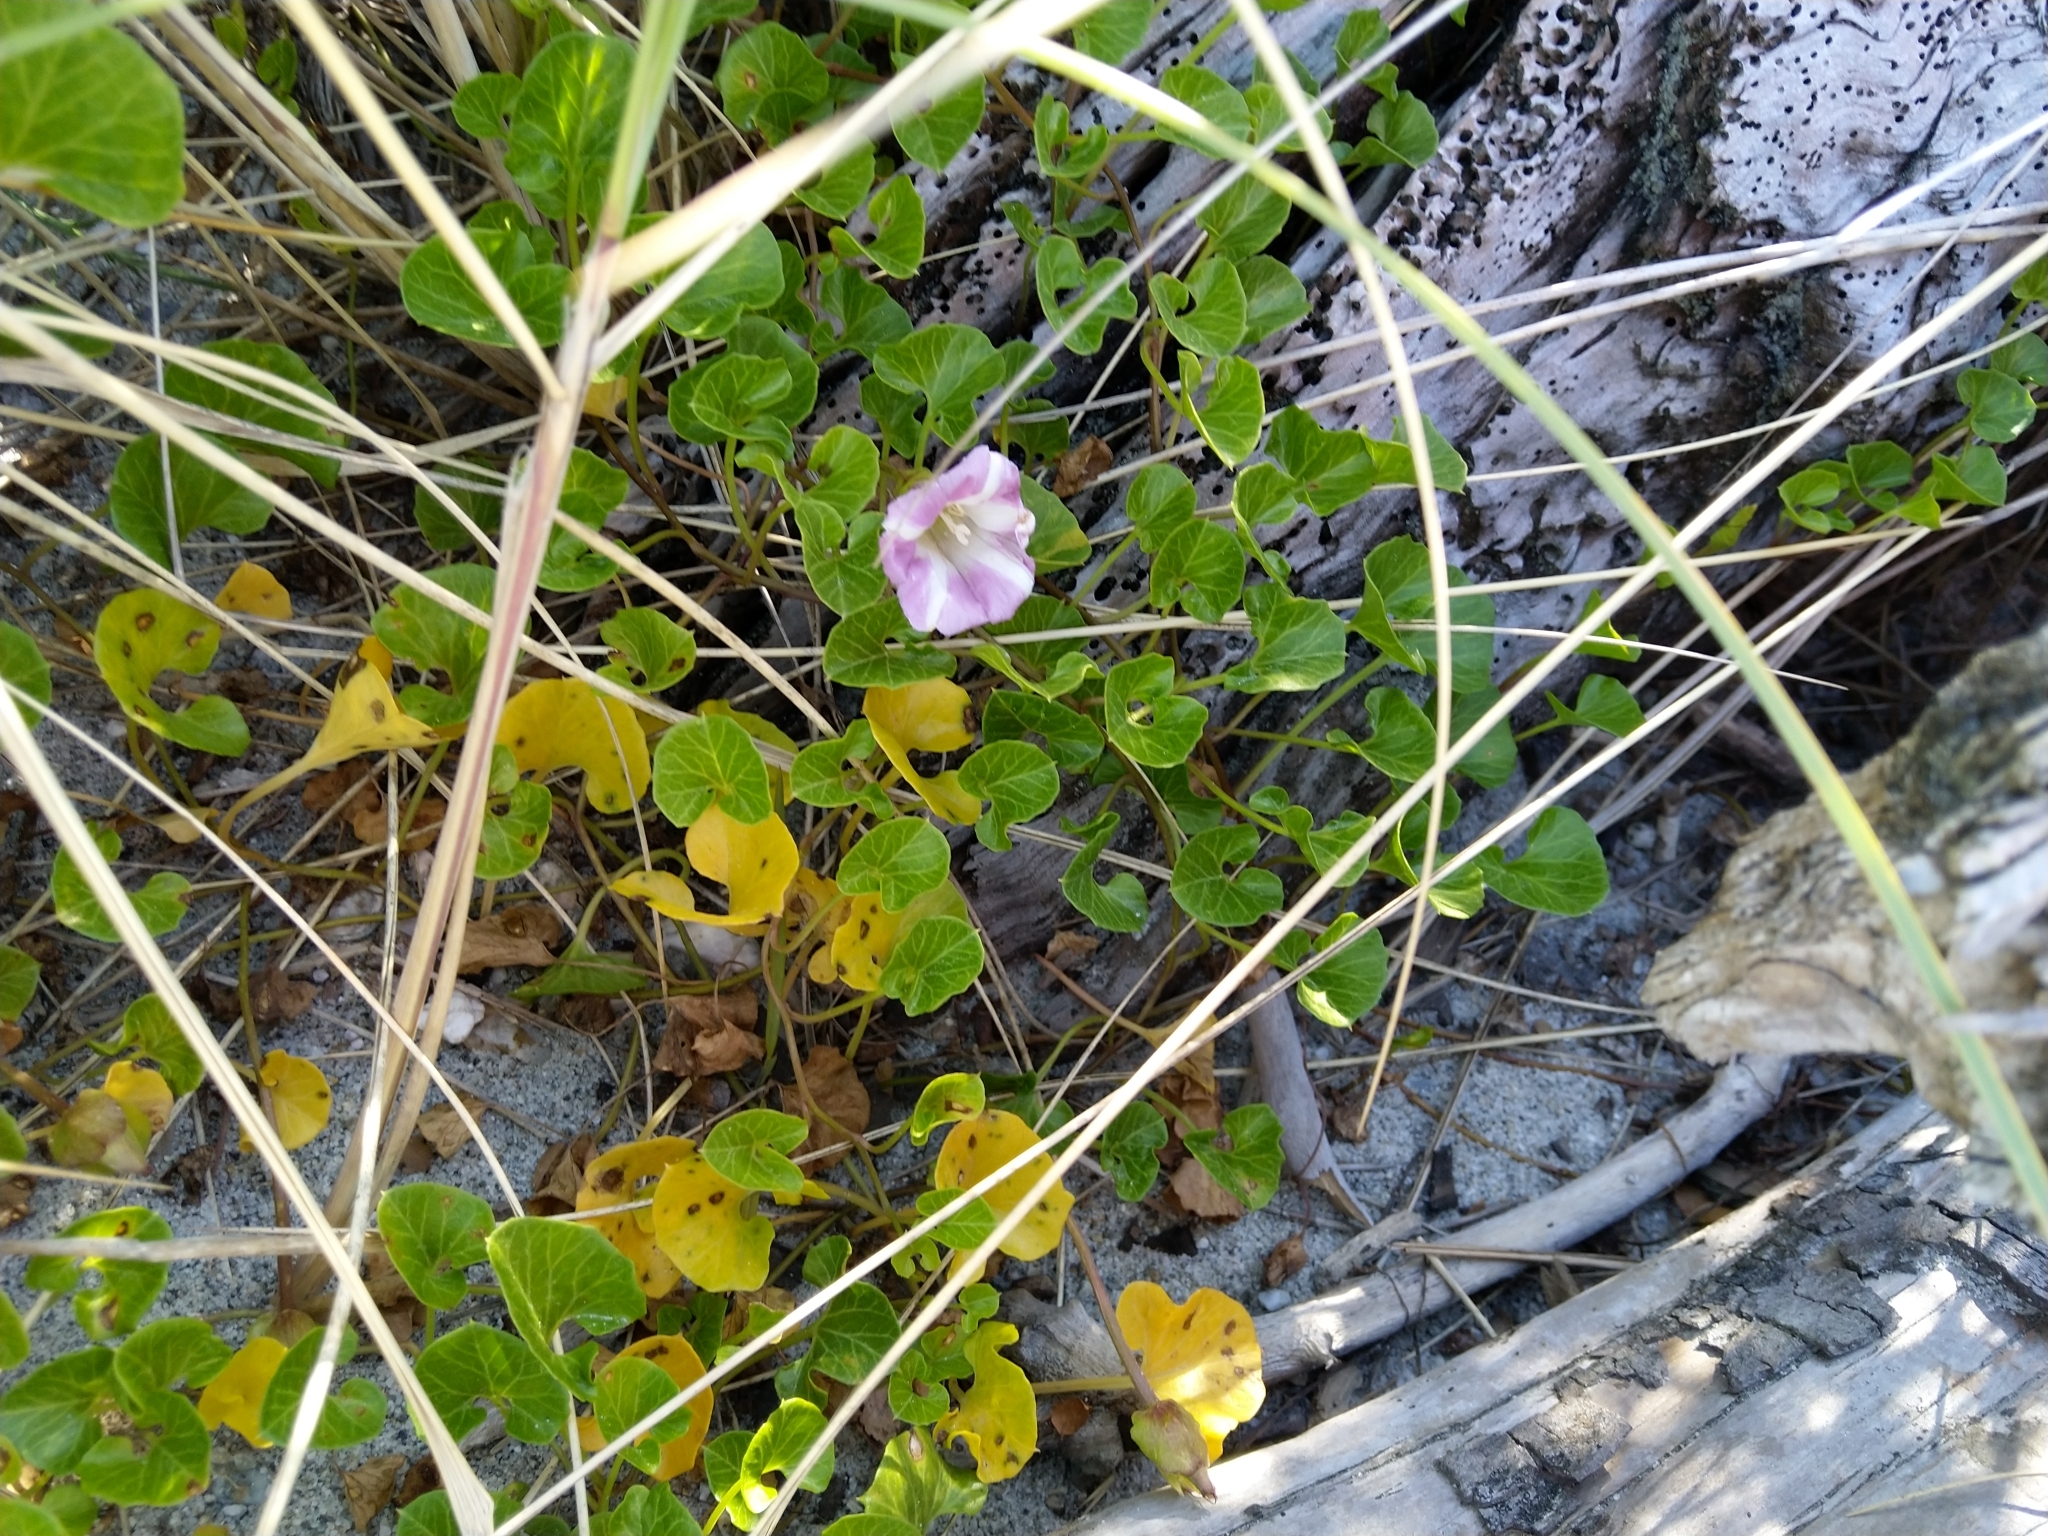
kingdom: Plantae
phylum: Tracheophyta
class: Magnoliopsida
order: Solanales
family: Convolvulaceae
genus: Calystegia
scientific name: Calystegia soldanella
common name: Sea bindweed
